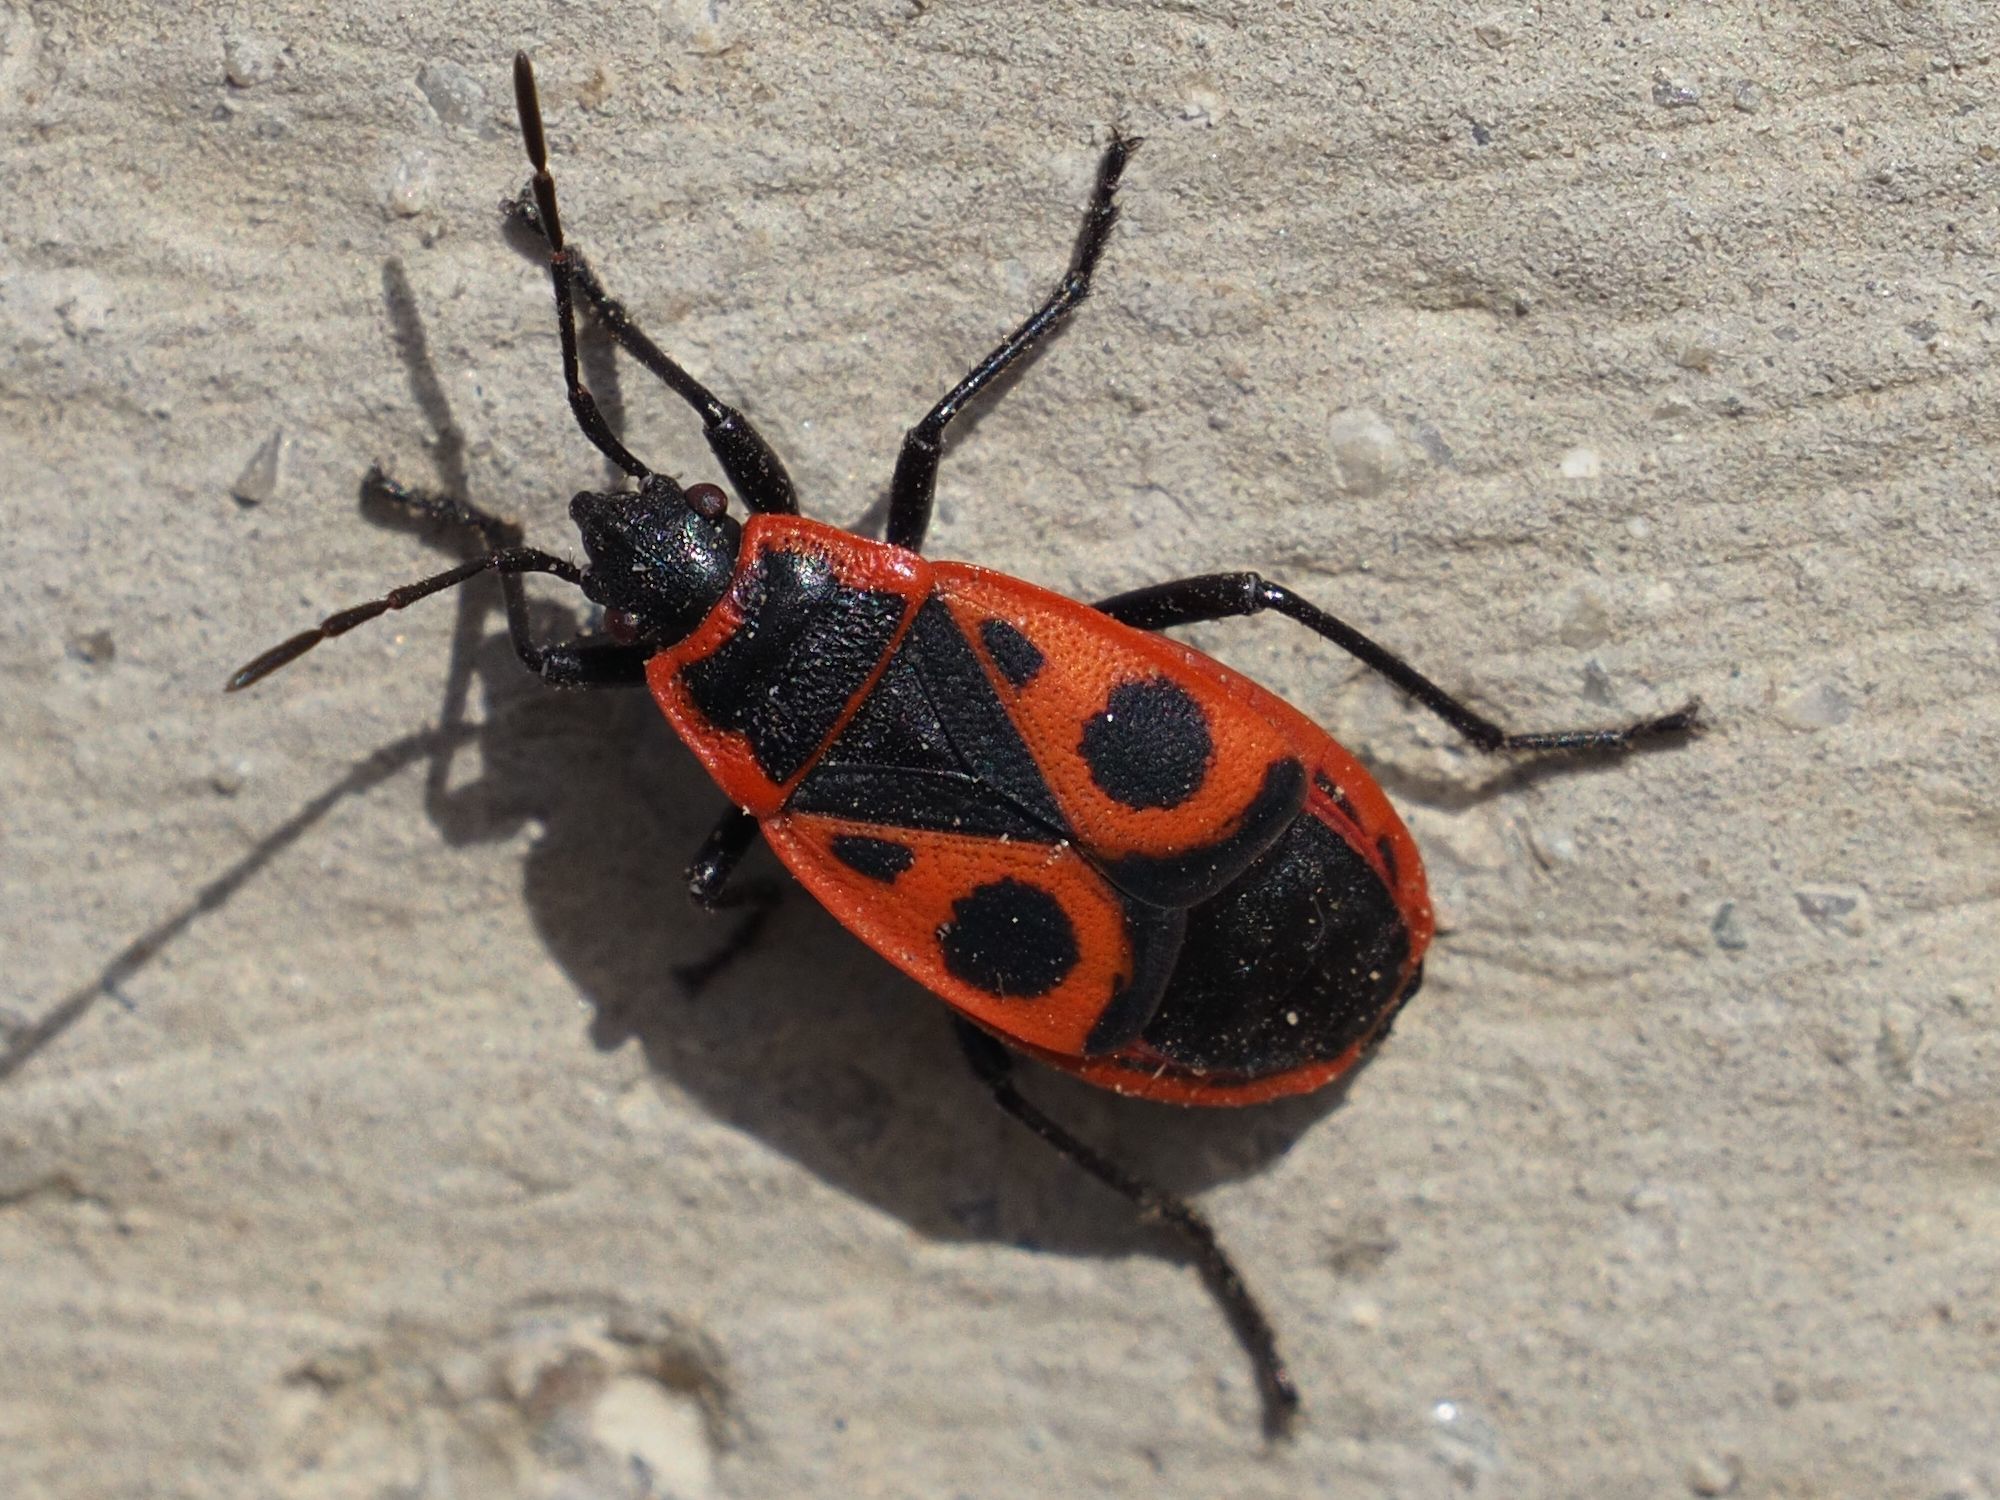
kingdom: Animalia
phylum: Arthropoda
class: Insecta
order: Hemiptera
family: Pyrrhocoridae
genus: Pyrrhocoris
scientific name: Pyrrhocoris apterus
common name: Firebug
